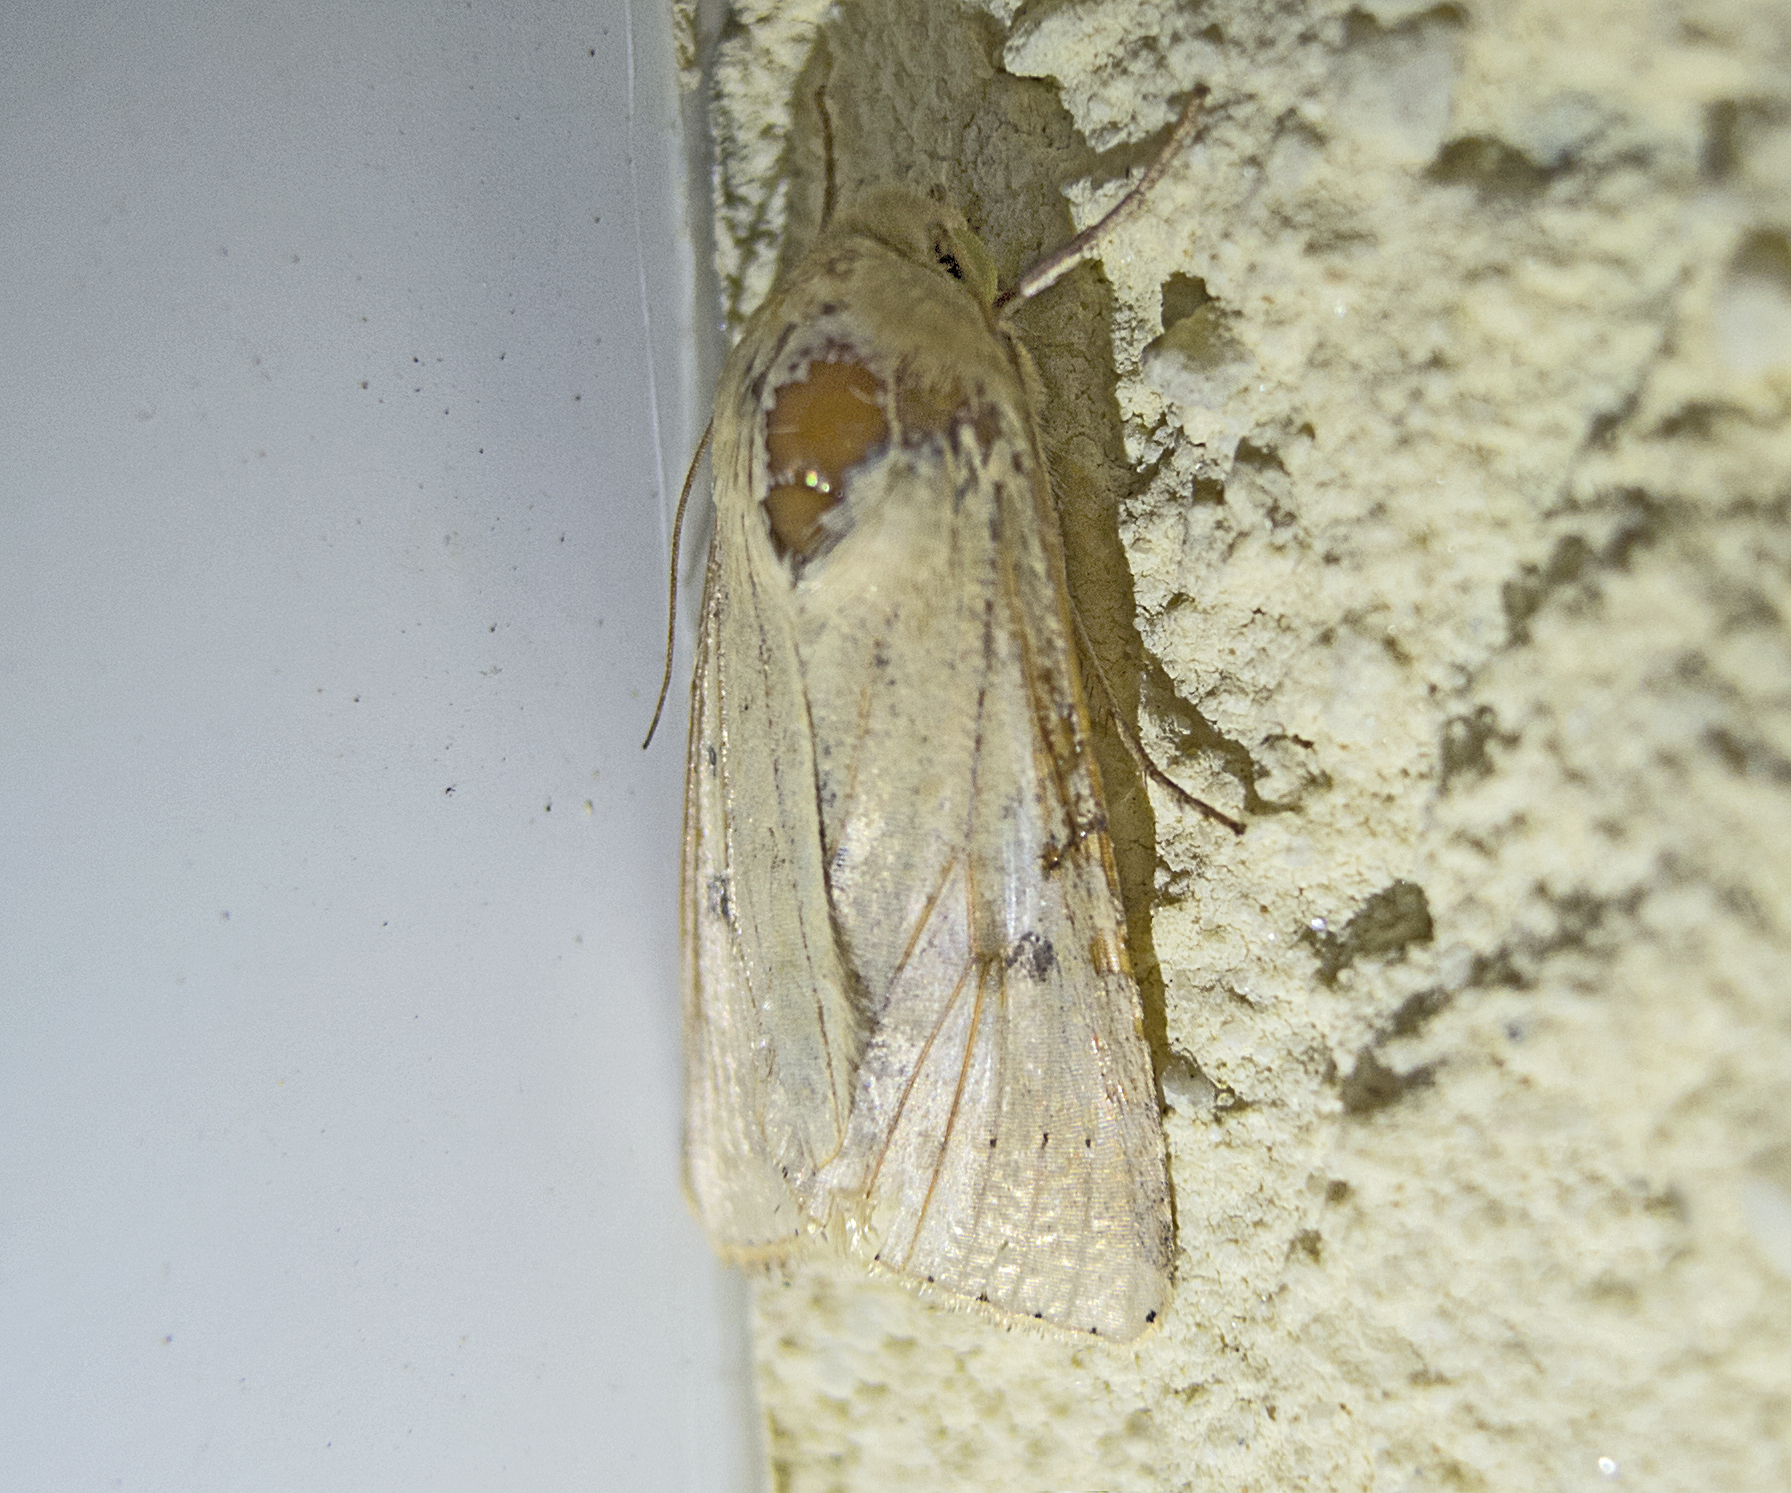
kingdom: Animalia
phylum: Arthropoda
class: Insecta
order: Lepidoptera
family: Noctuidae
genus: Helicoverpa
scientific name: Helicoverpa armigera
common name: Cotton bollworm
